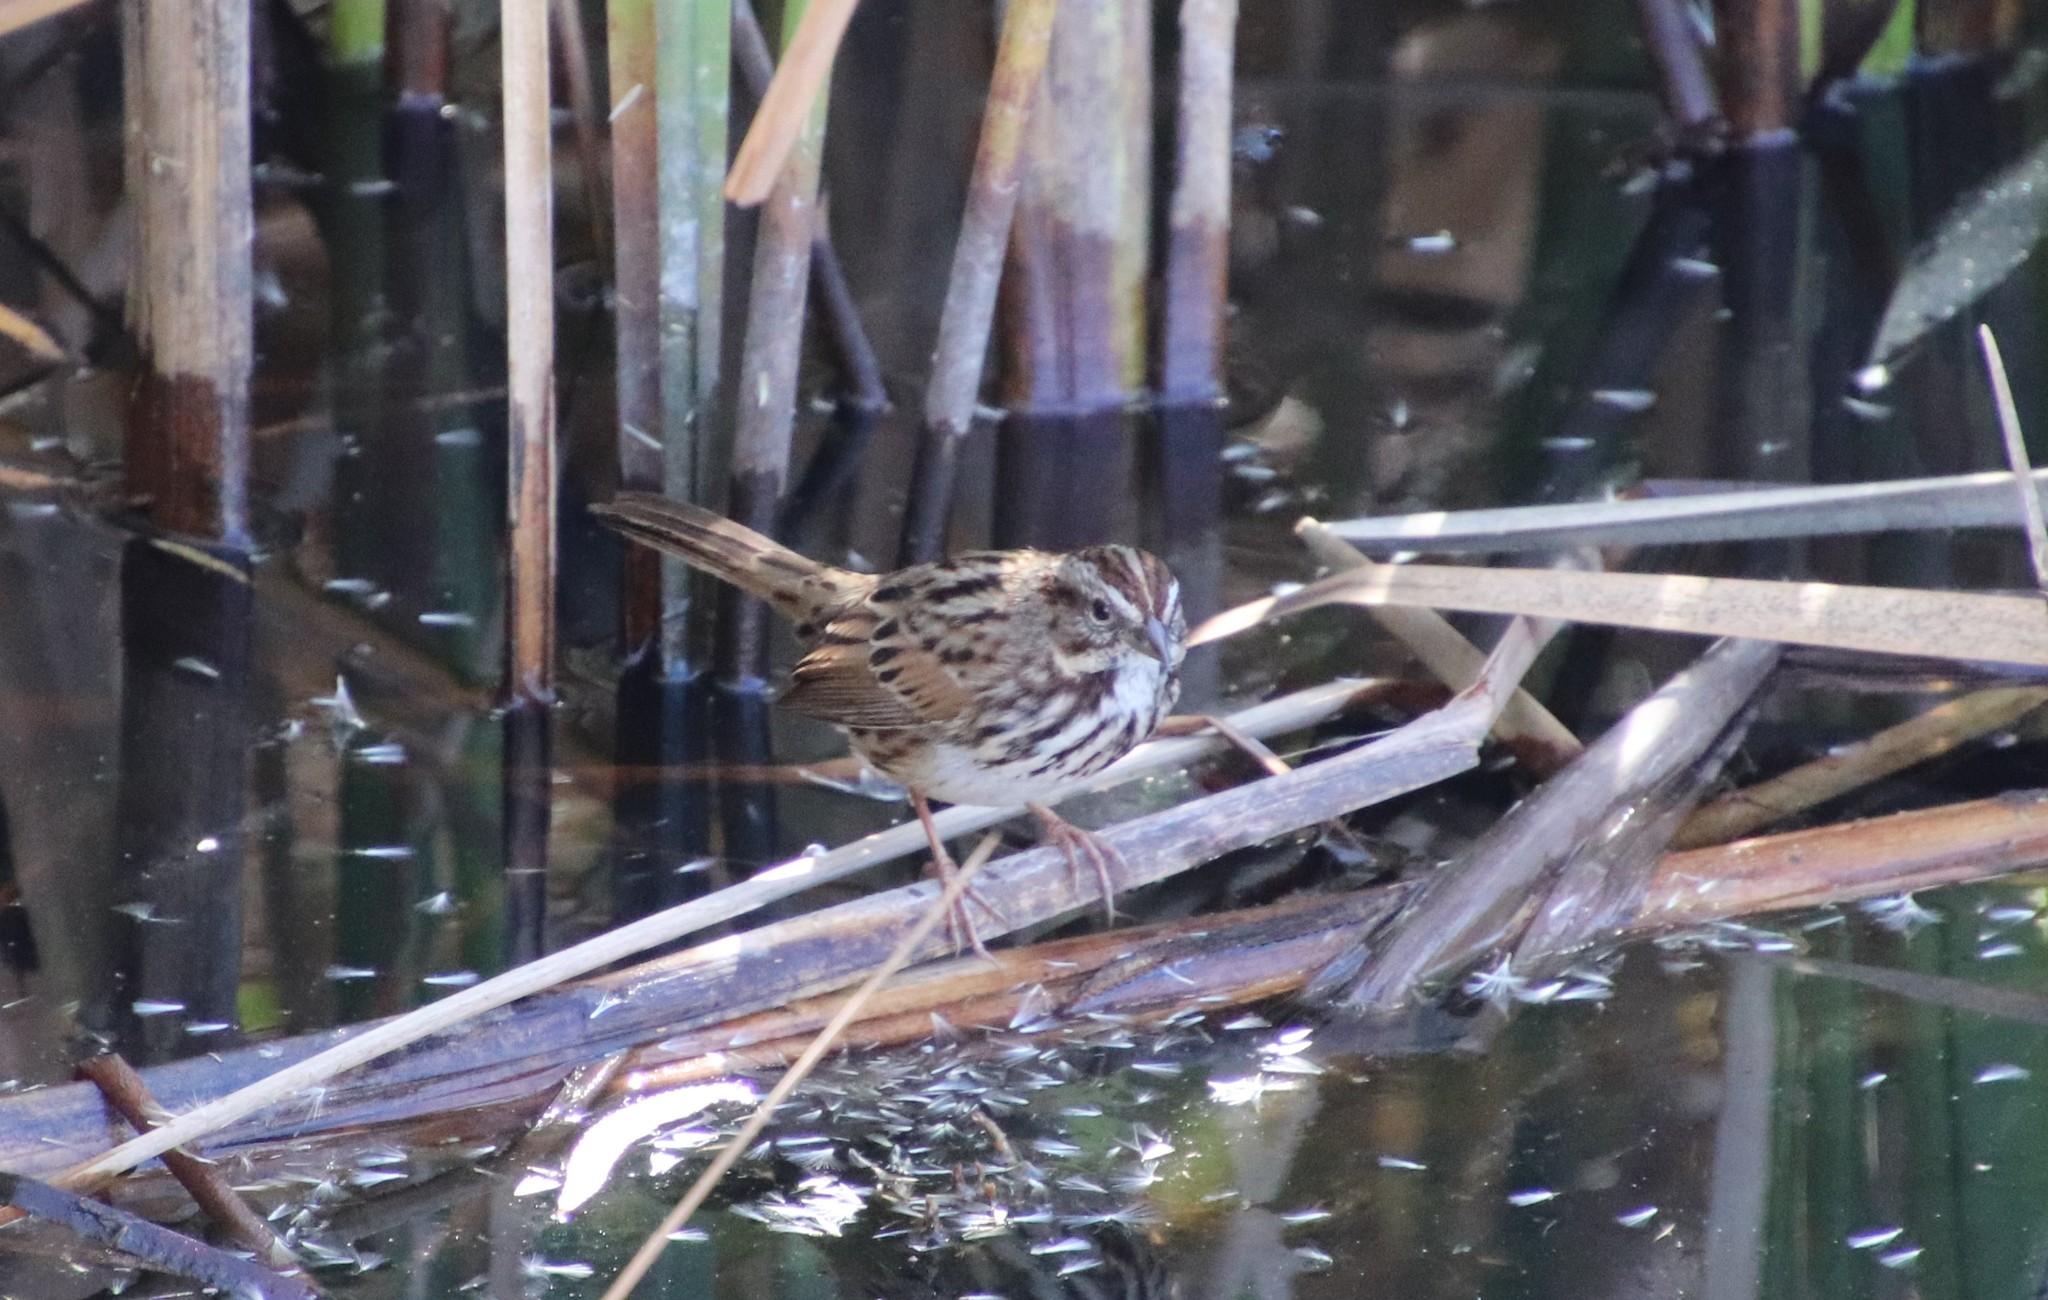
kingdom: Animalia
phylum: Chordata
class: Aves
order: Passeriformes
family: Passerellidae
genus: Melospiza
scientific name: Melospiza melodia
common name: Song sparrow
